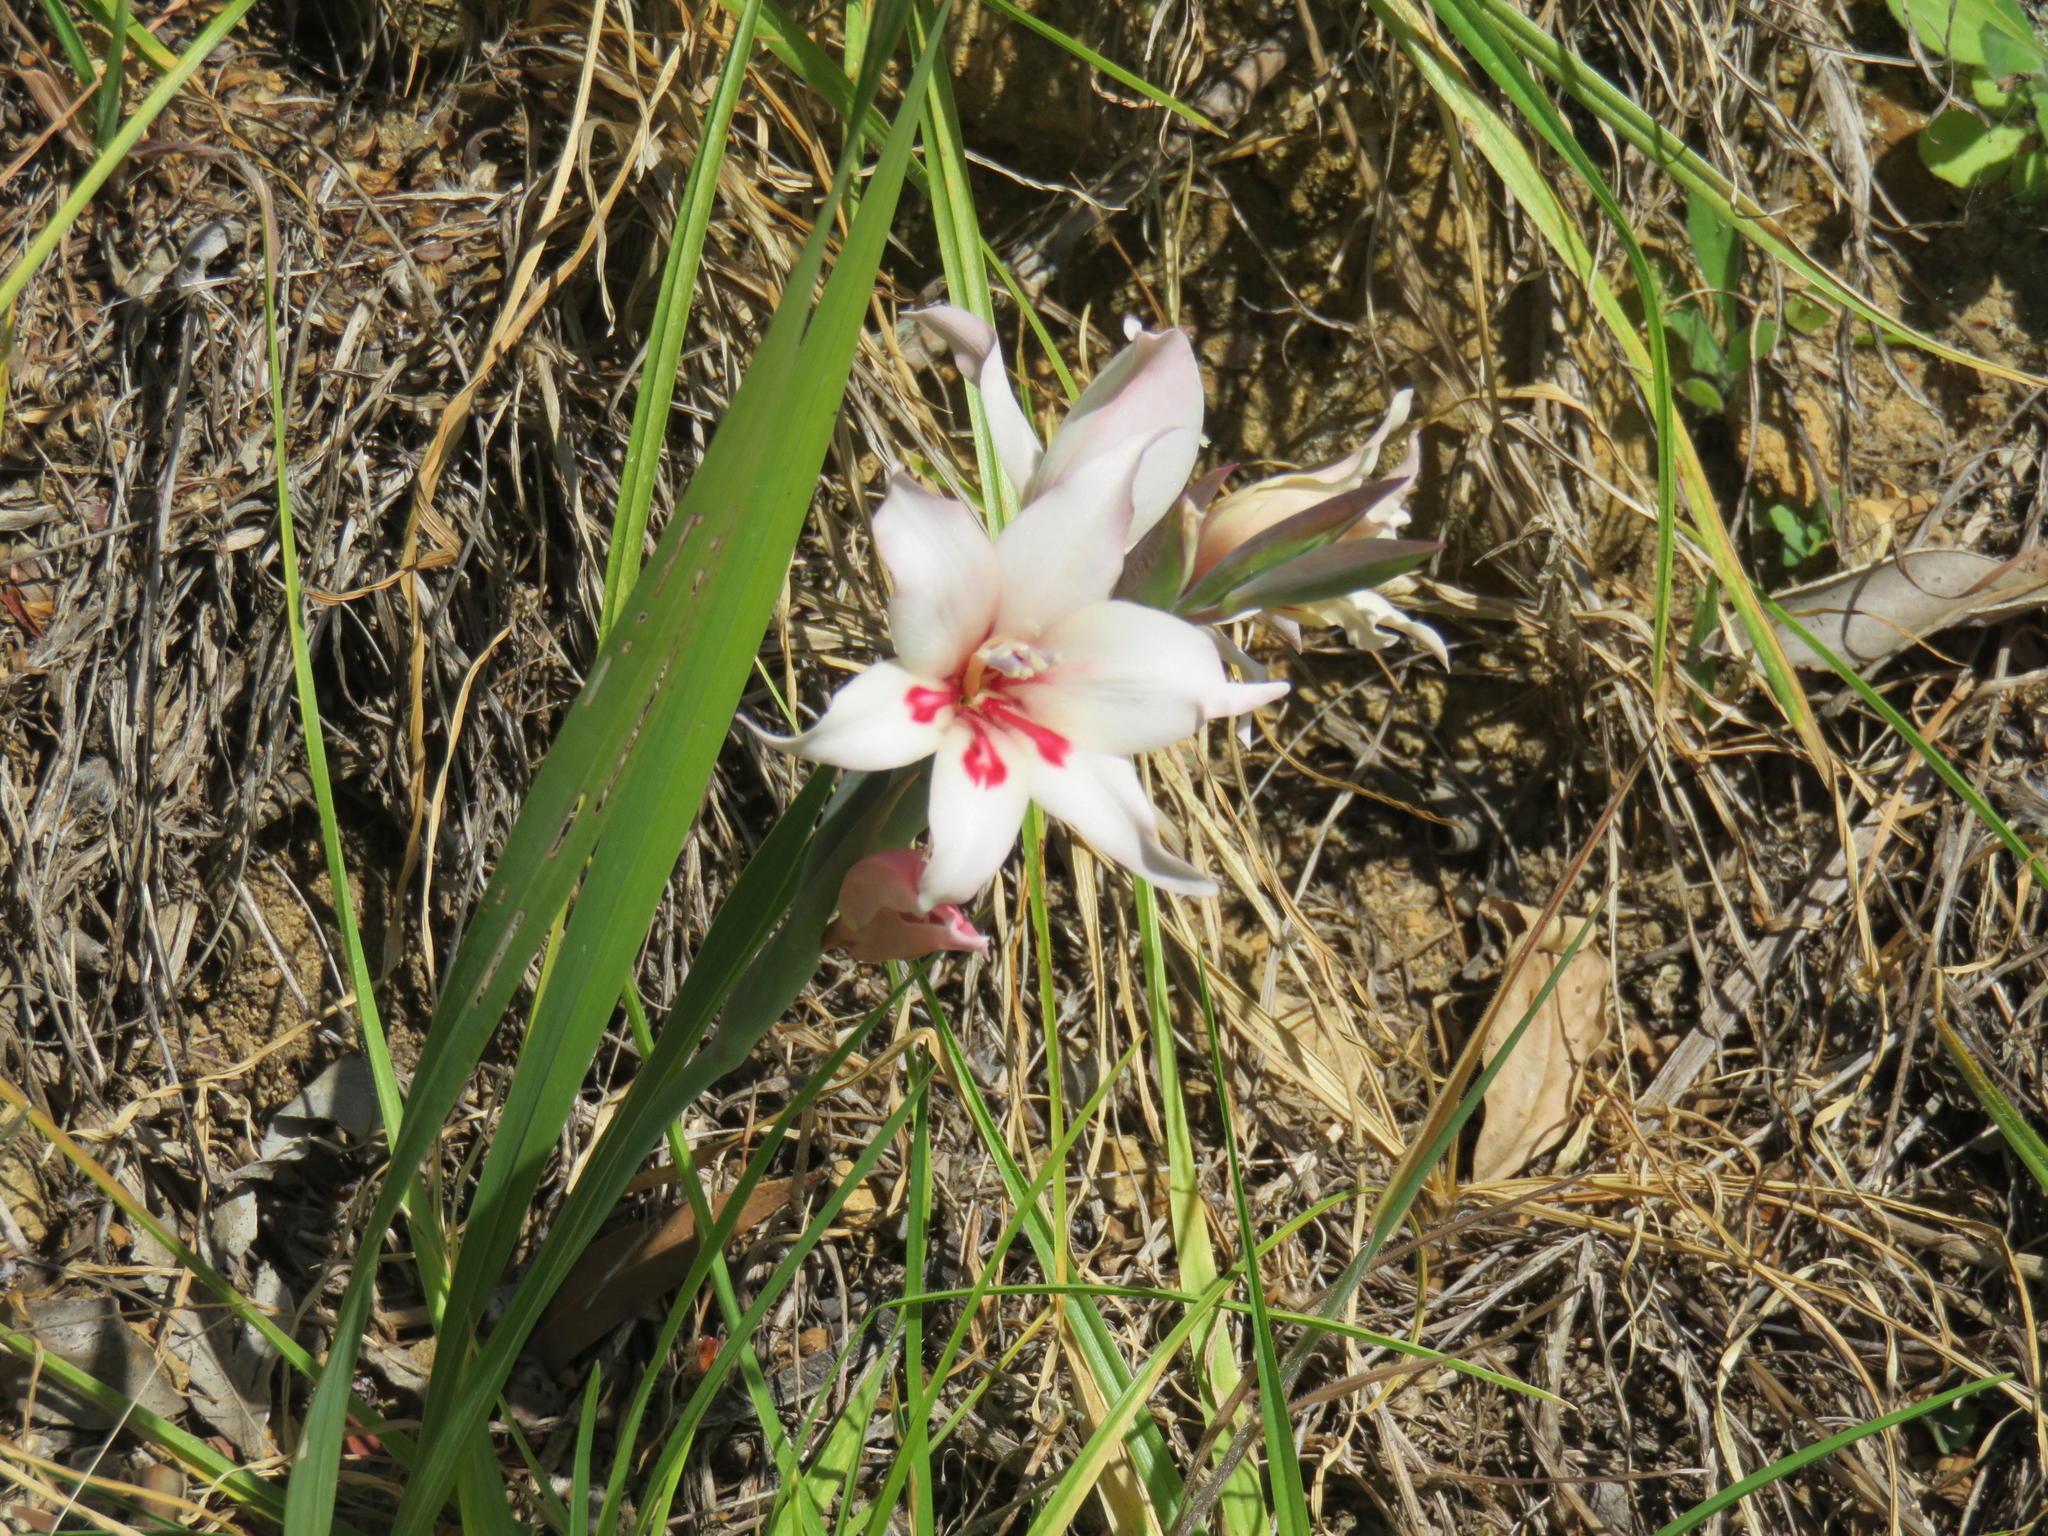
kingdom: Plantae
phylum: Tracheophyta
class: Liliopsida
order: Asparagales
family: Iridaceae
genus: Gladiolus
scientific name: Gladiolus carneus
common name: Painted-lady
